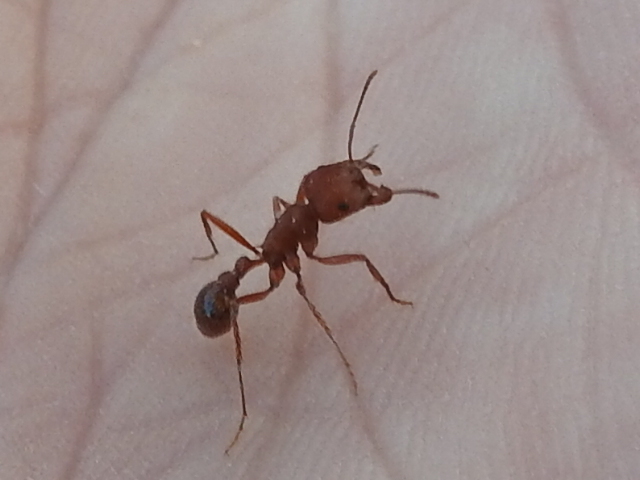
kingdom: Animalia
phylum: Arthropoda
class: Insecta
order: Hymenoptera
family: Formicidae
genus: Pogonomyrmex
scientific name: Pogonomyrmex comanche
